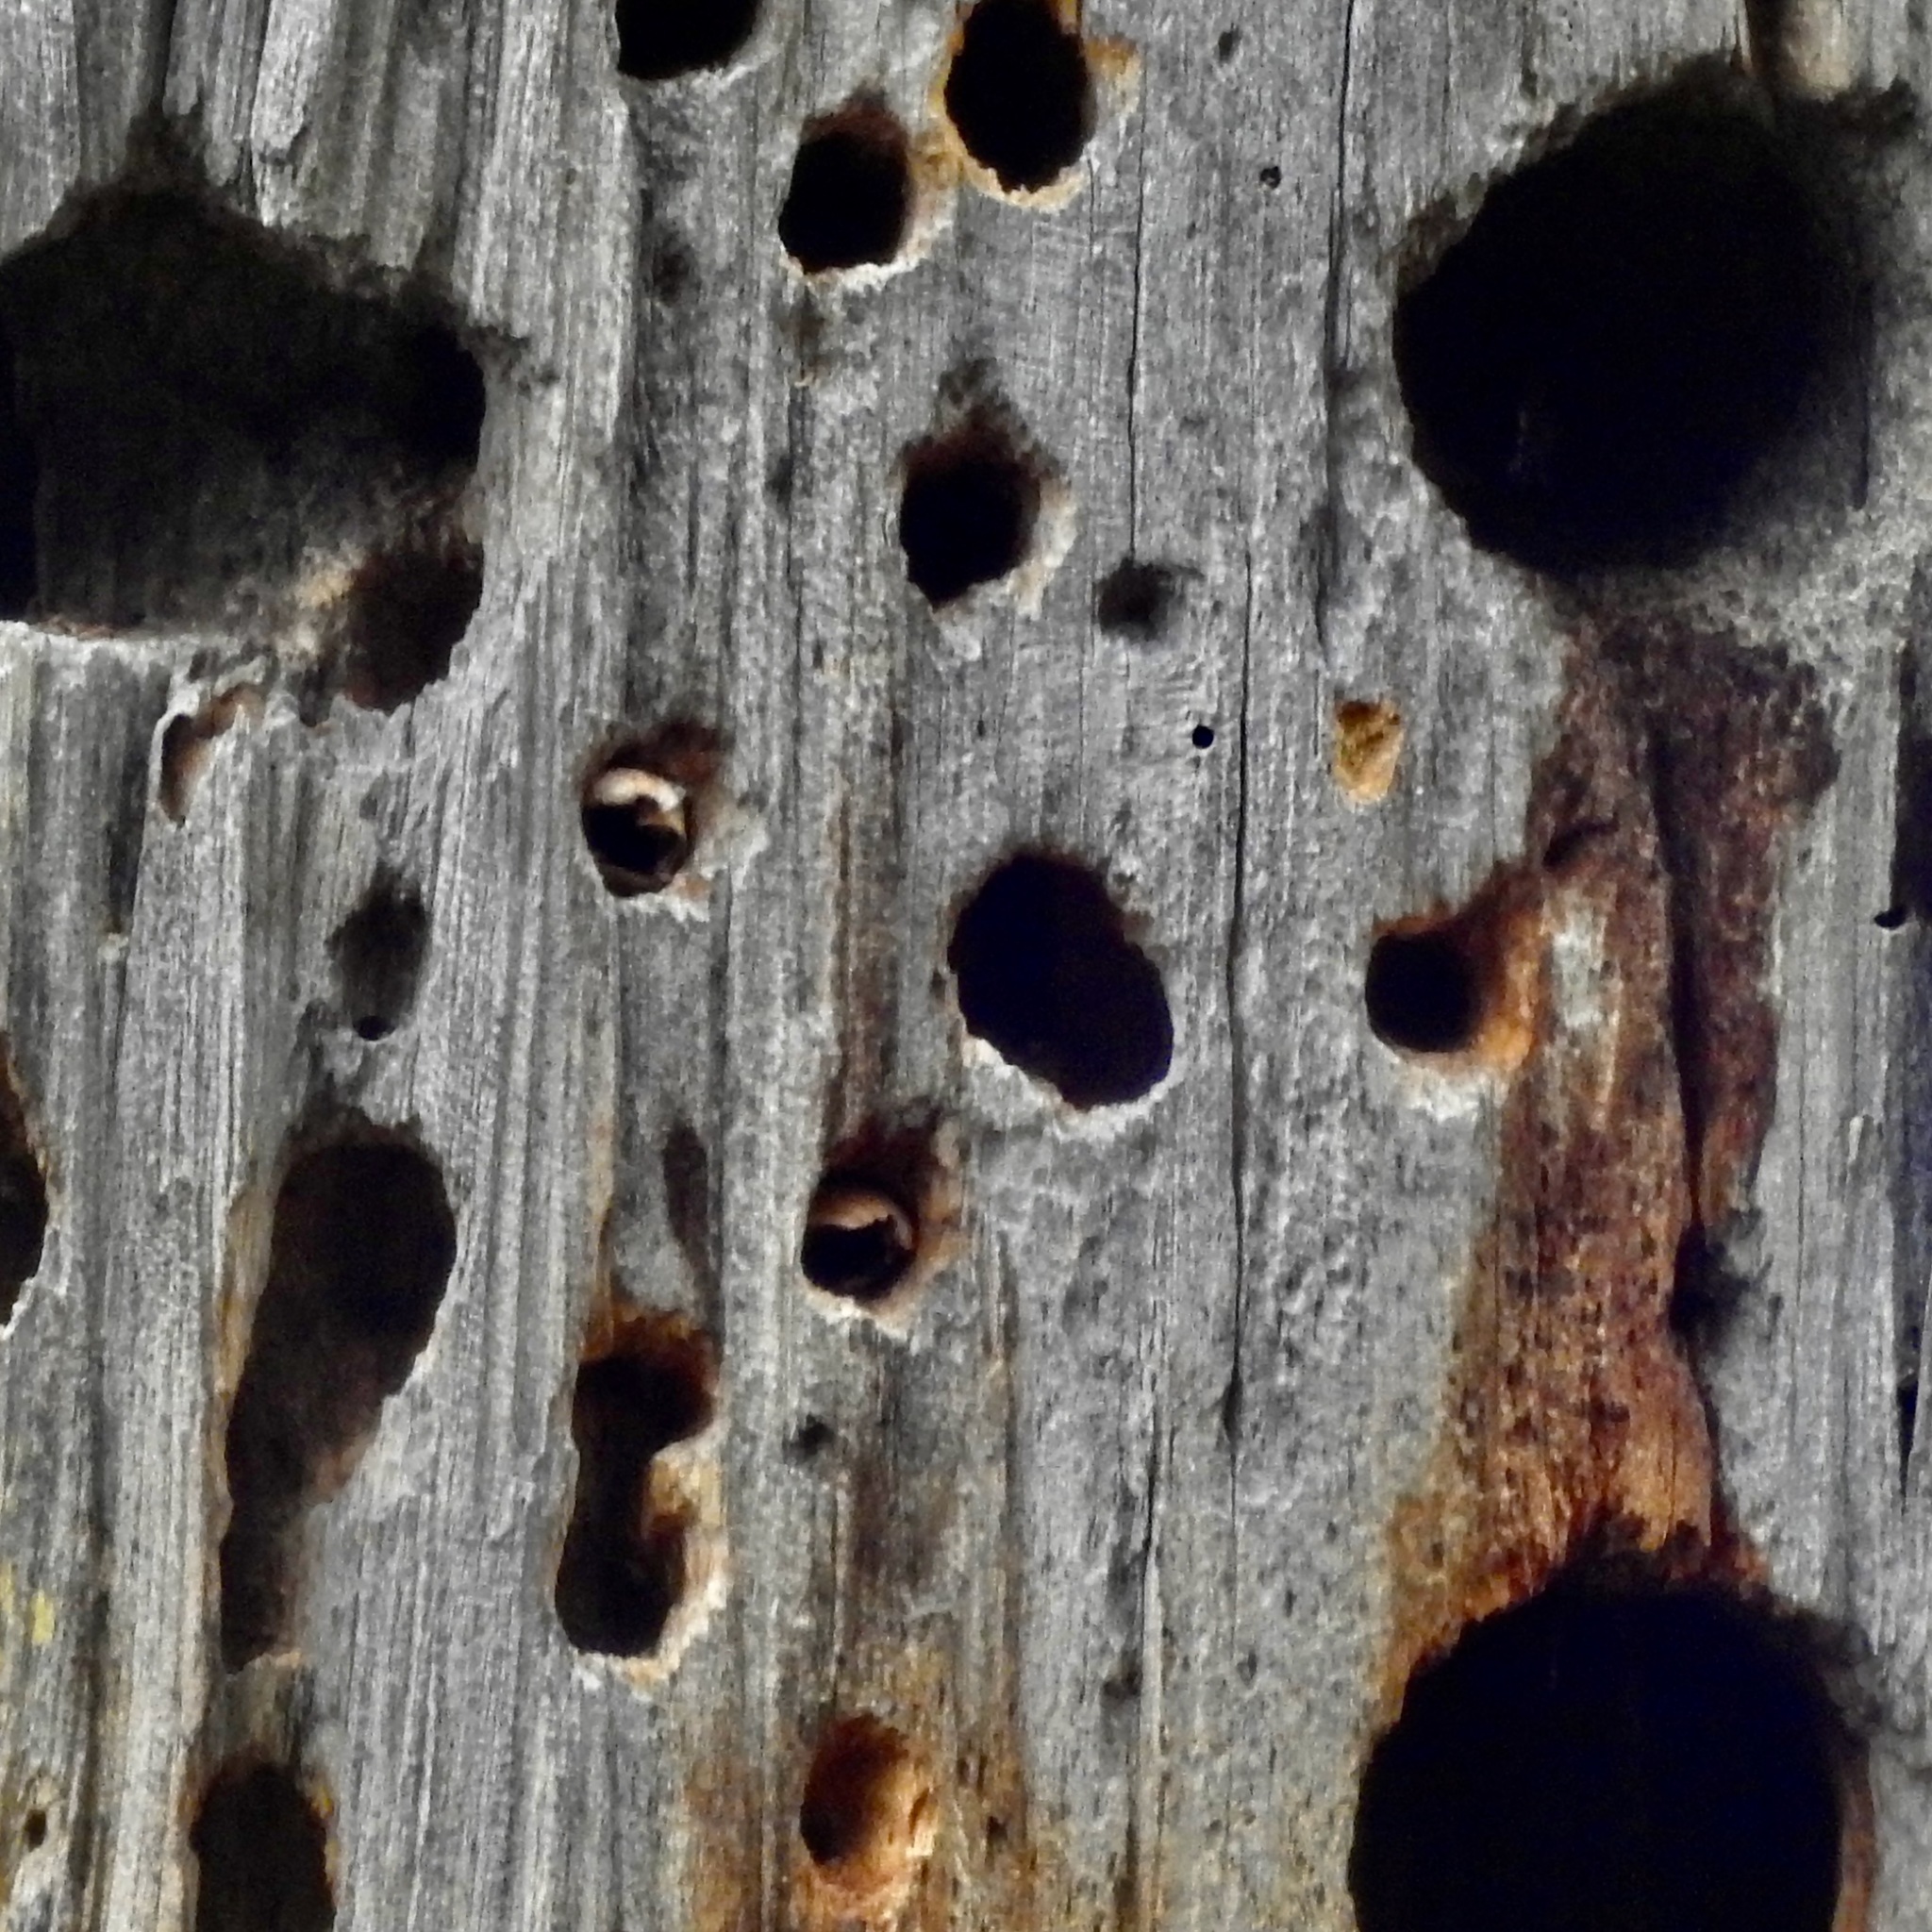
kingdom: Animalia
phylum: Chordata
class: Aves
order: Piciformes
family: Picidae
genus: Melanerpes
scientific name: Melanerpes formicivorus
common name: Acorn woodpecker
